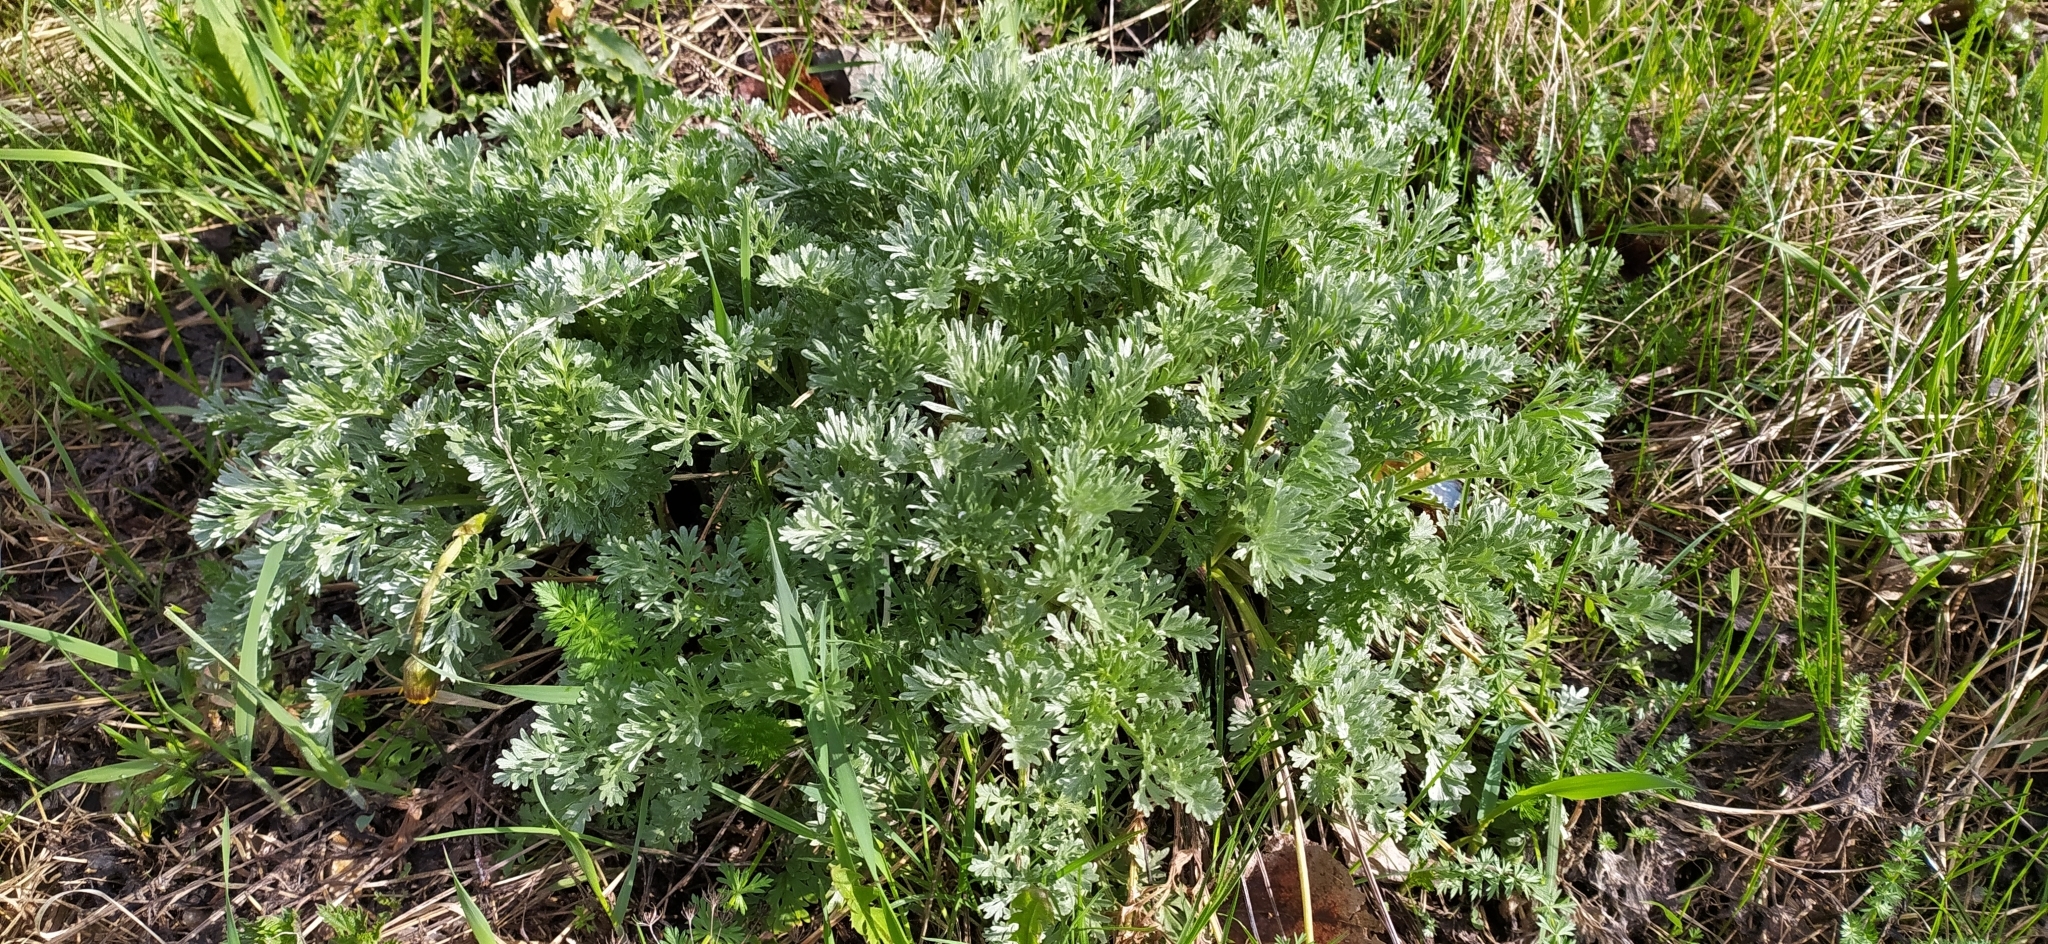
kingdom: Plantae
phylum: Tracheophyta
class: Magnoliopsida
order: Asterales
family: Asteraceae
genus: Artemisia
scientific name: Artemisia absinthium
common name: Wormwood
